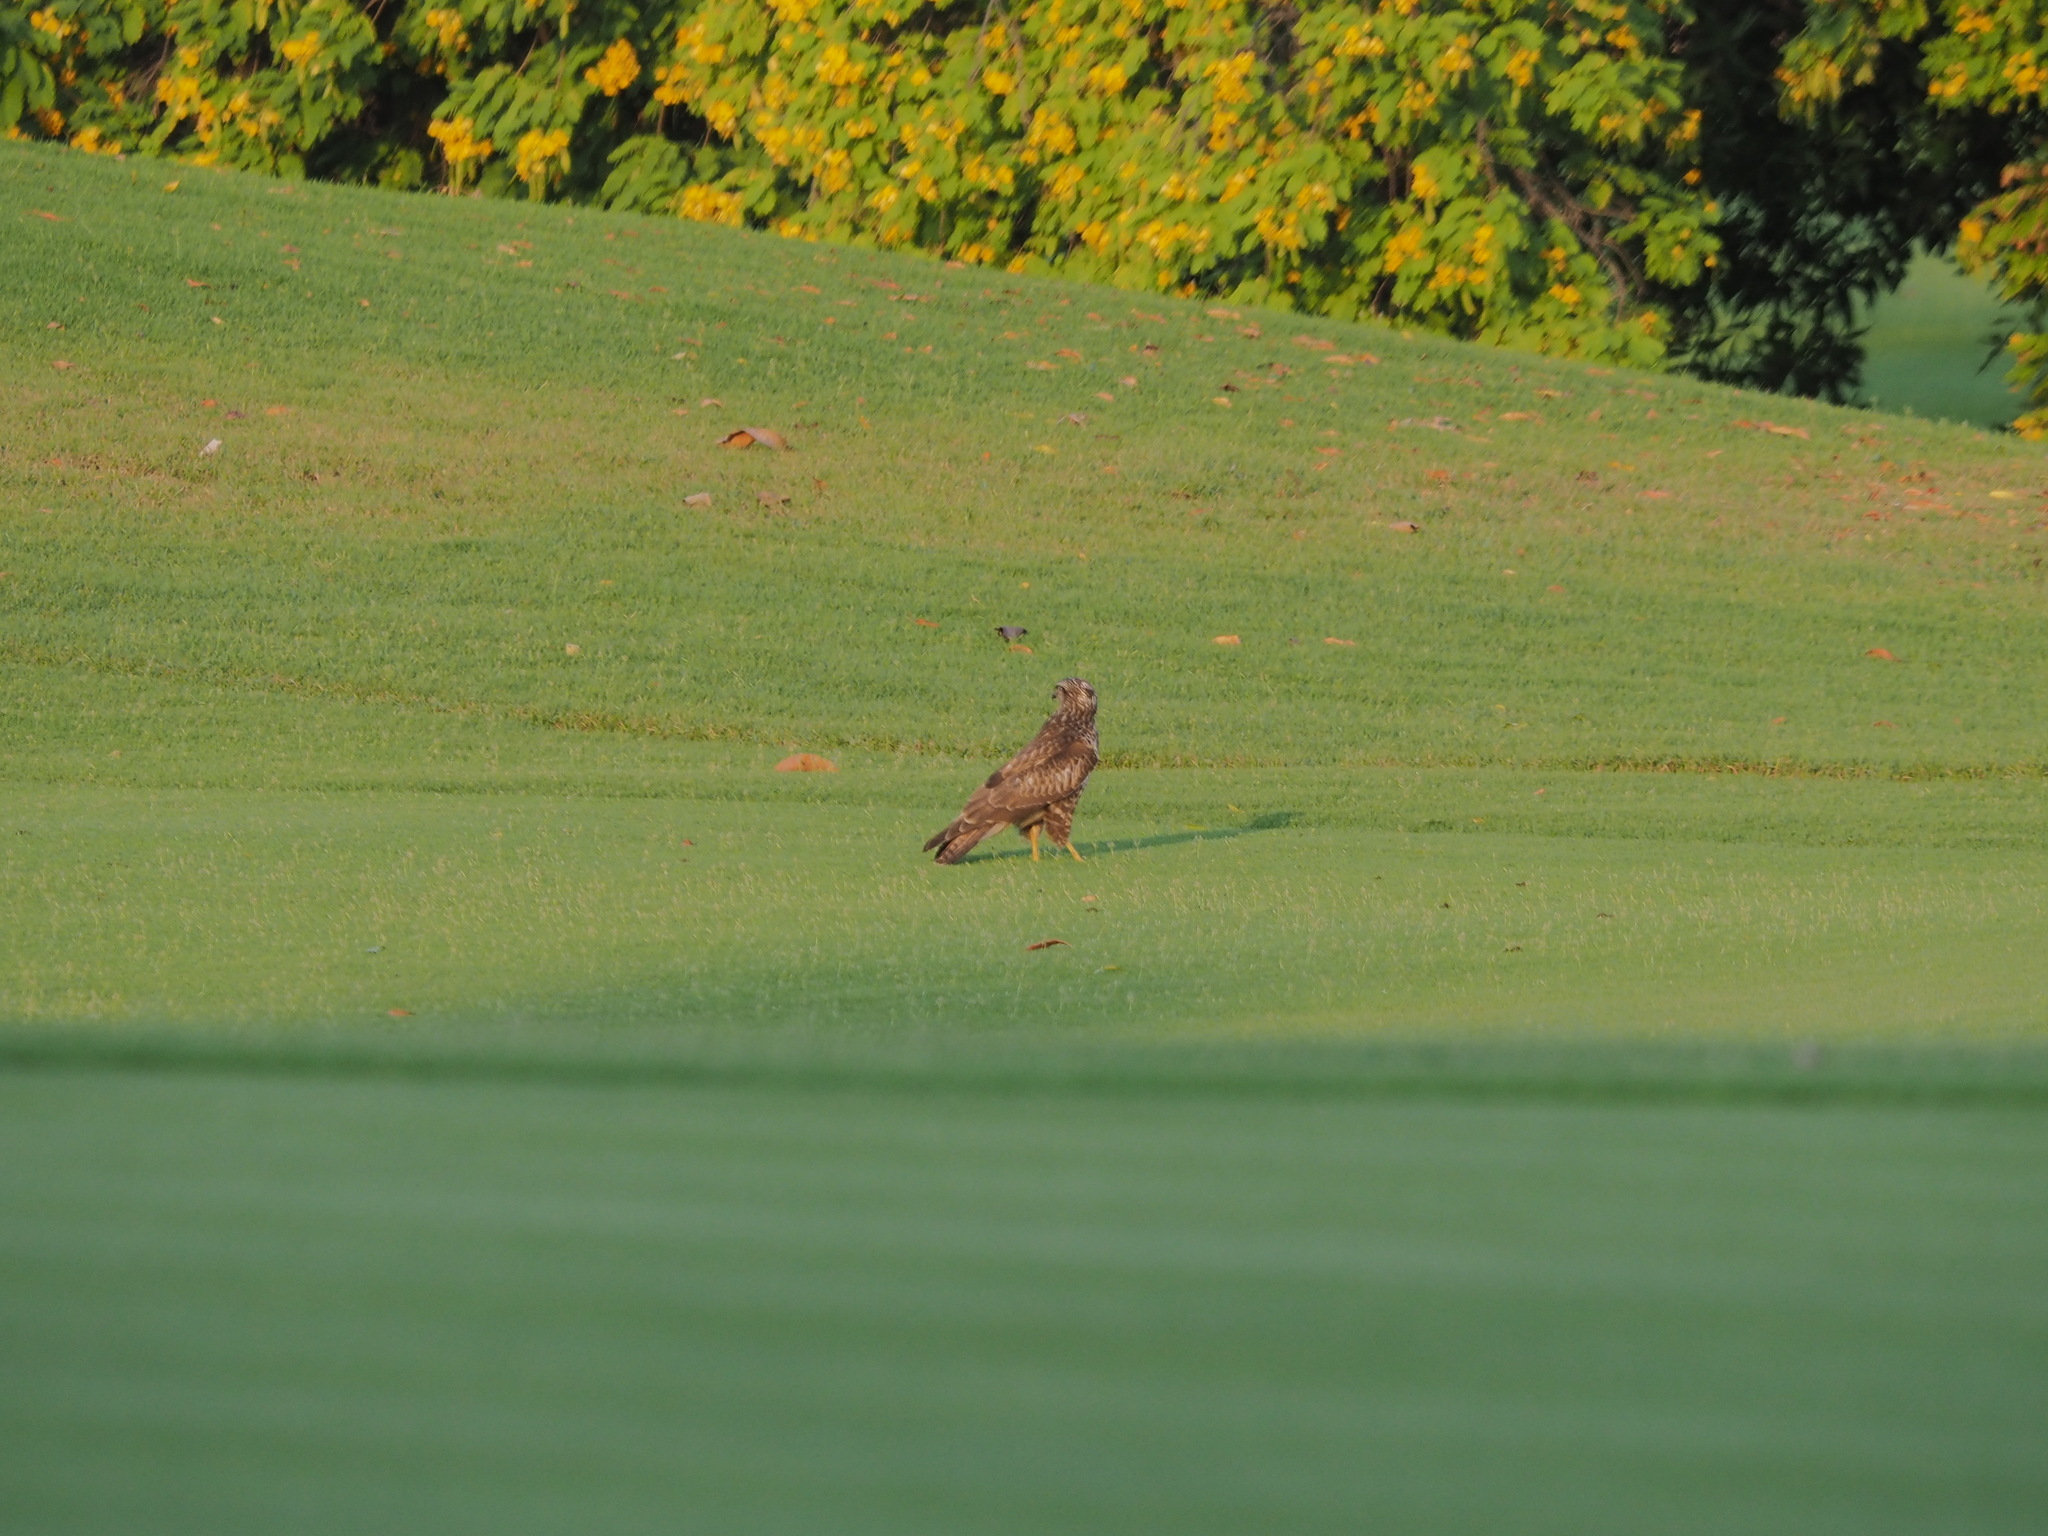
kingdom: Animalia
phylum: Chordata
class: Aves
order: Accipitriformes
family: Accipitridae
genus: Buteo
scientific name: Buteo buteo
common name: Common buzzard
